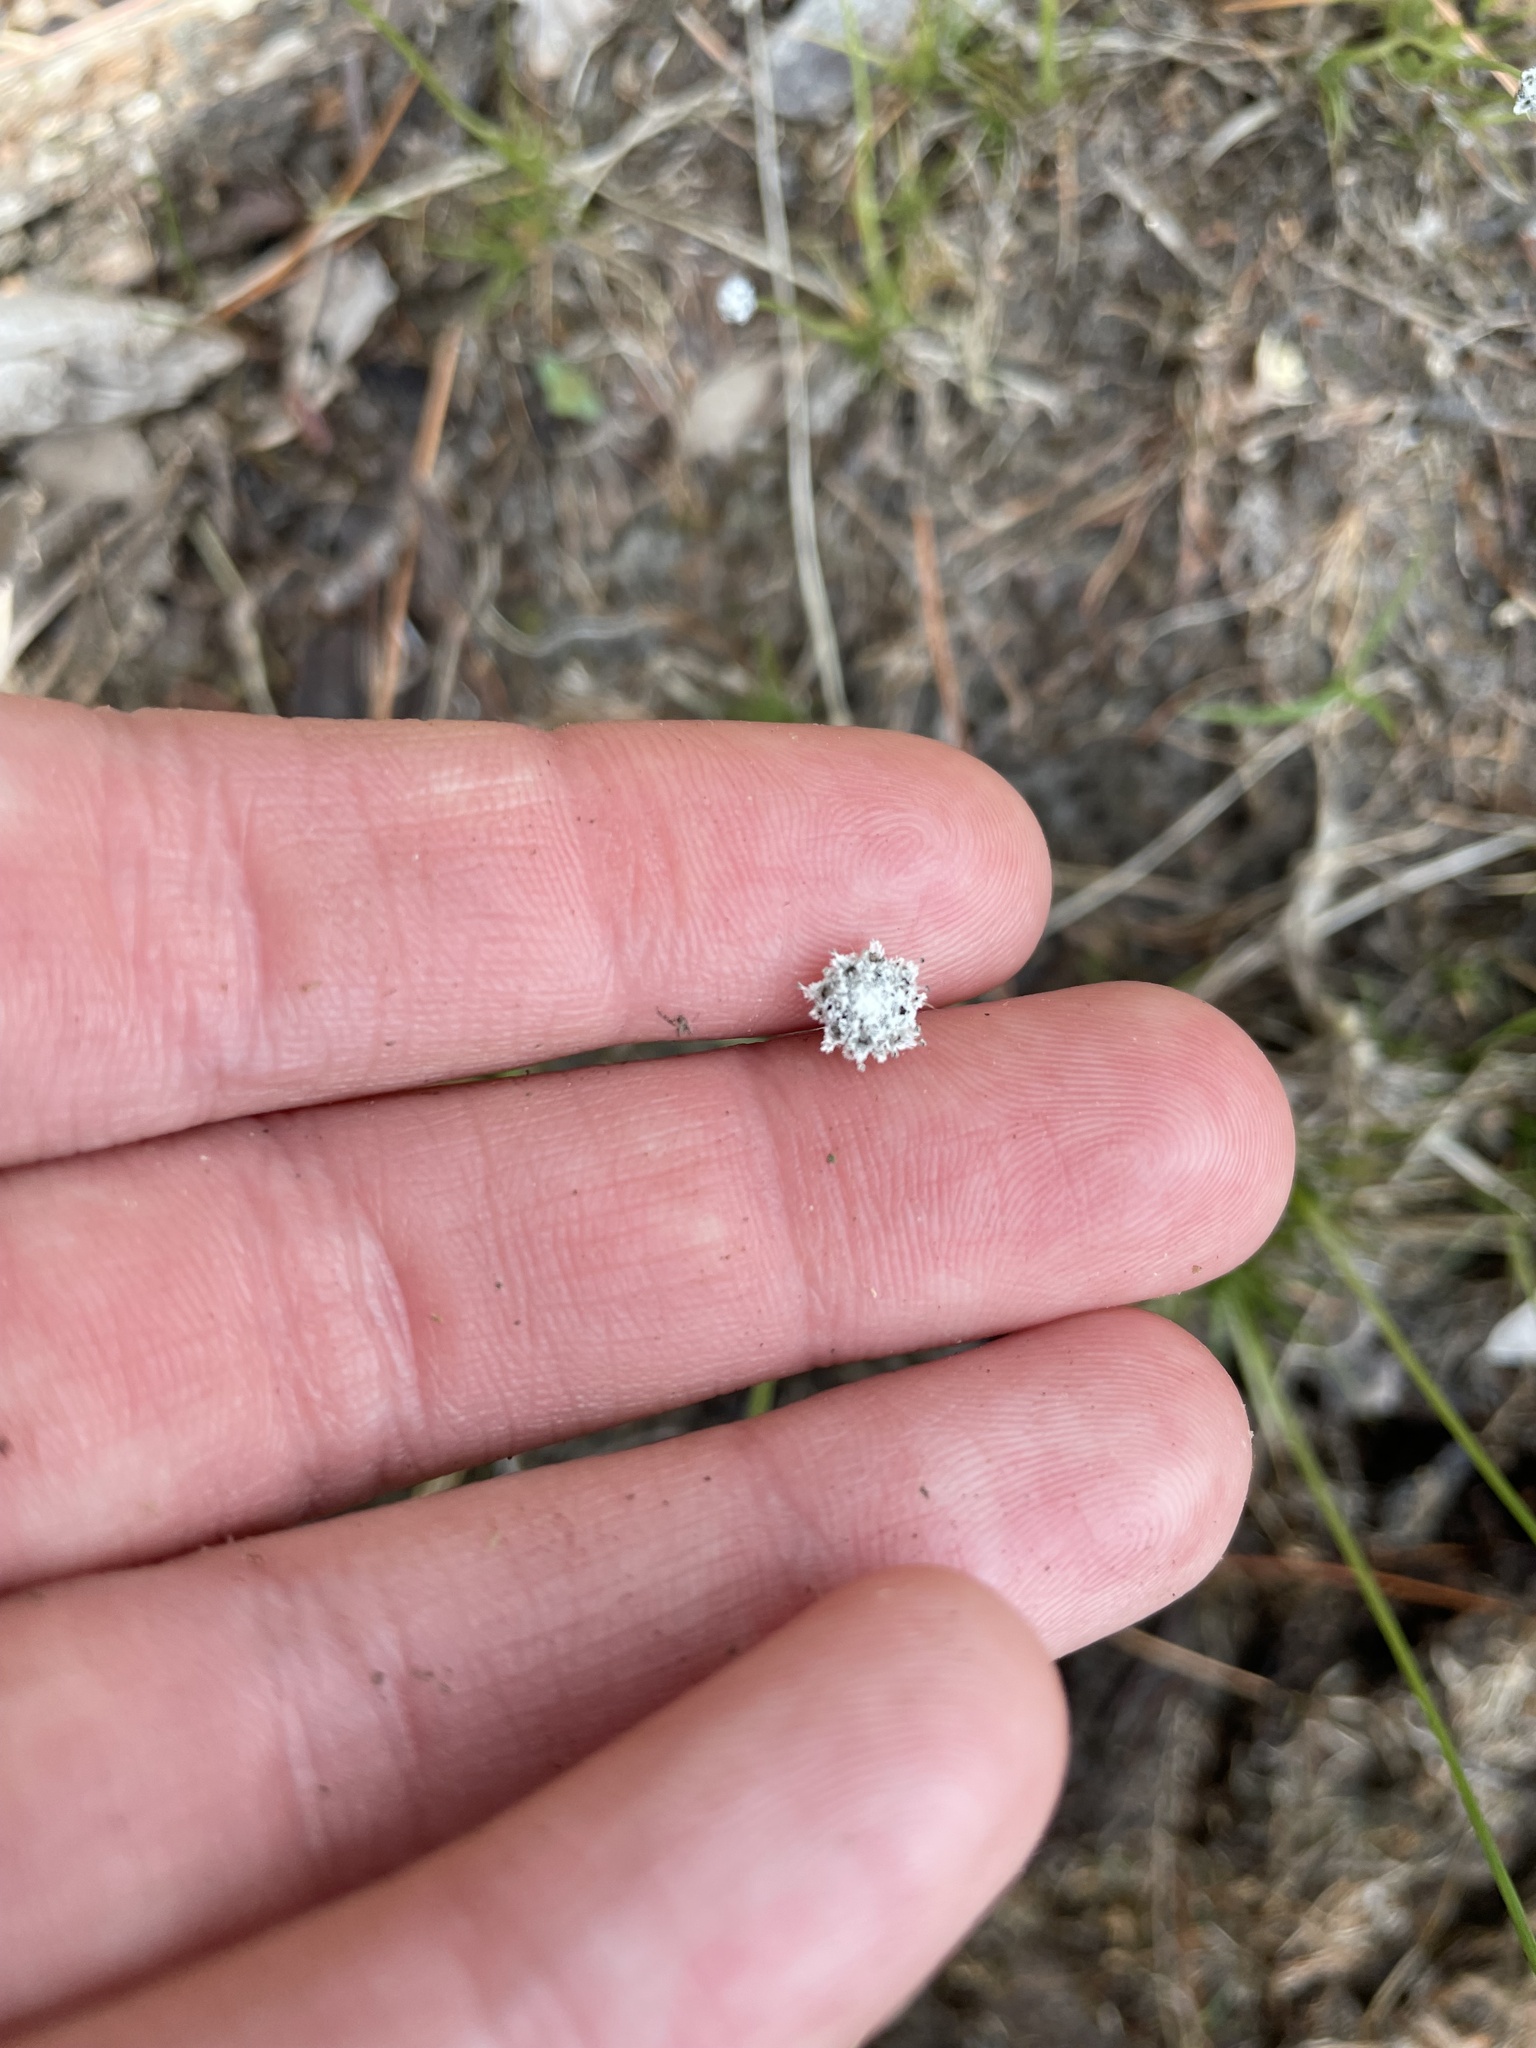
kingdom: Plantae
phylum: Tracheophyta
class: Liliopsida
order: Poales
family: Eriocaulaceae
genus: Eriocaulon
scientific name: Eriocaulon aquaticum
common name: Pipewort
